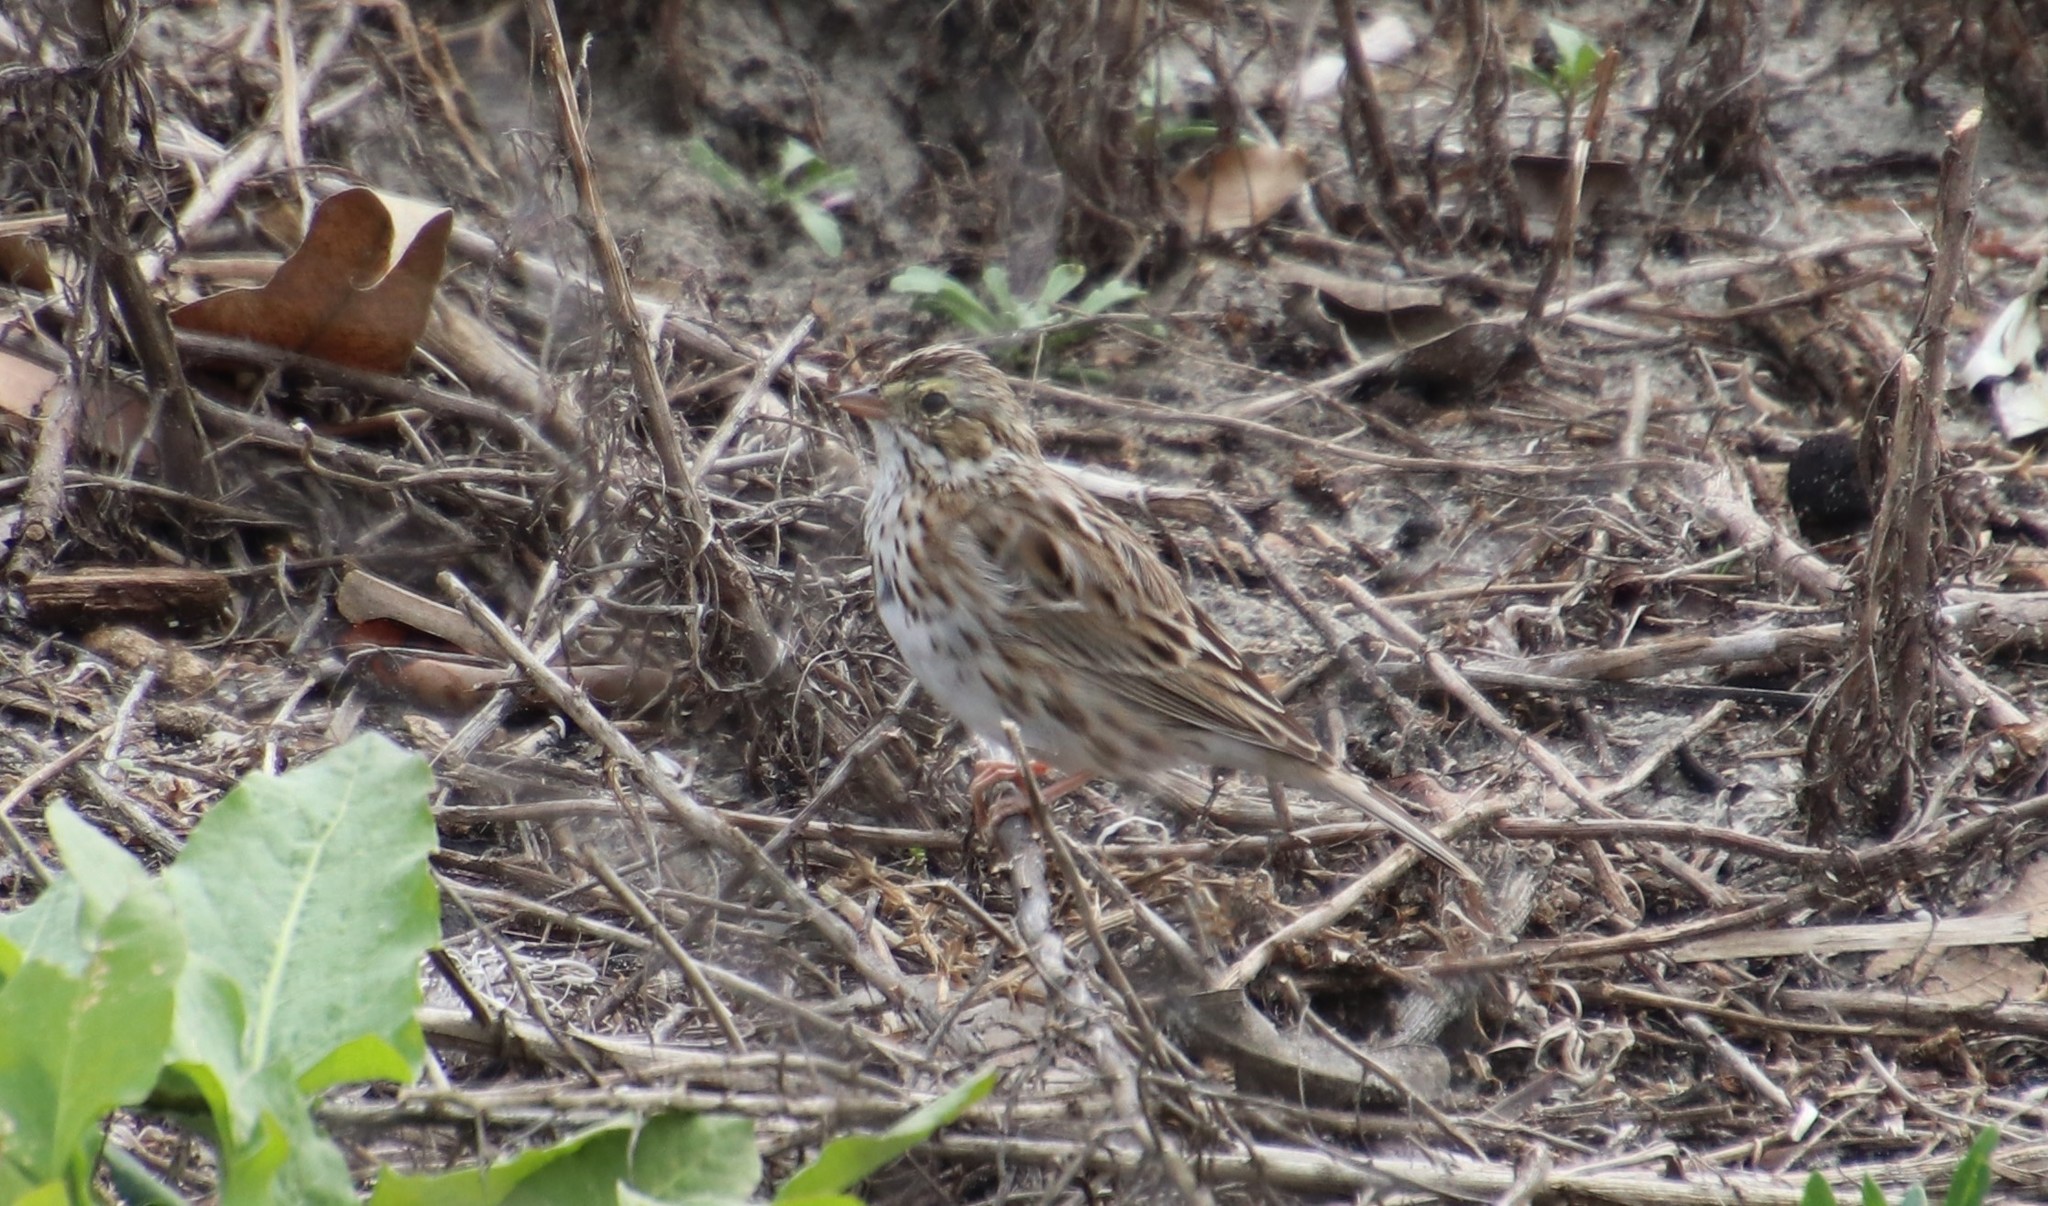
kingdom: Animalia
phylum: Chordata
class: Aves
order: Passeriformes
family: Passerellidae
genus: Passerculus
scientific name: Passerculus sandwichensis
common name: Savannah sparrow
